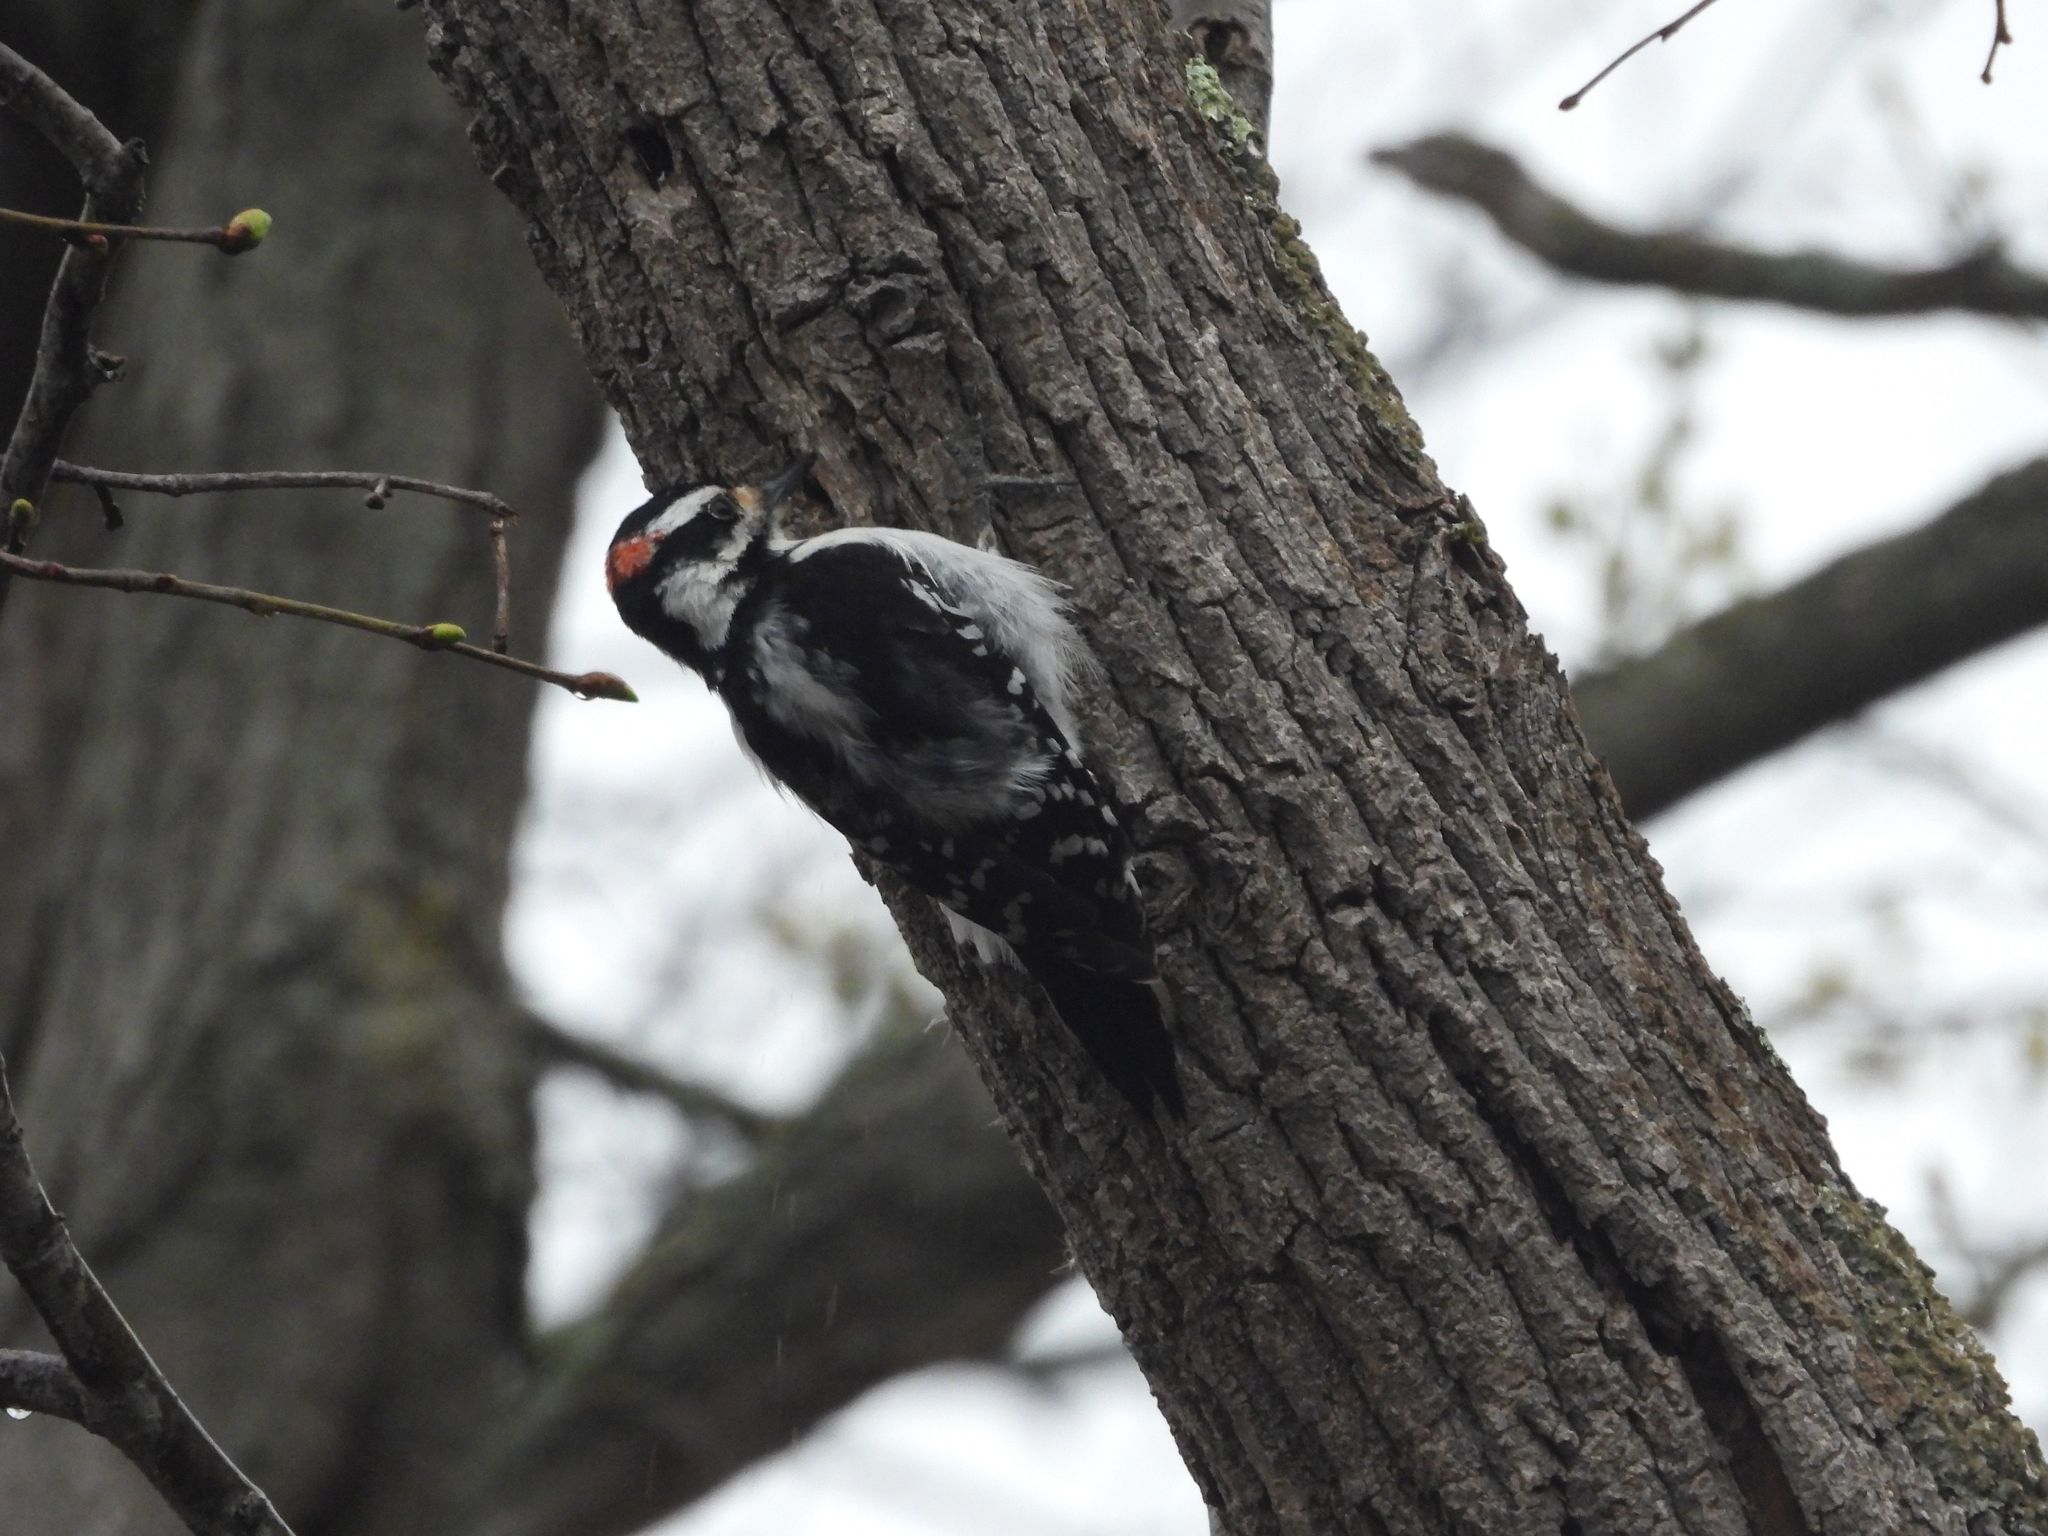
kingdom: Animalia
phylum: Chordata
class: Aves
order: Piciformes
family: Picidae
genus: Leuconotopicus
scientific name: Leuconotopicus villosus
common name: Hairy woodpecker
